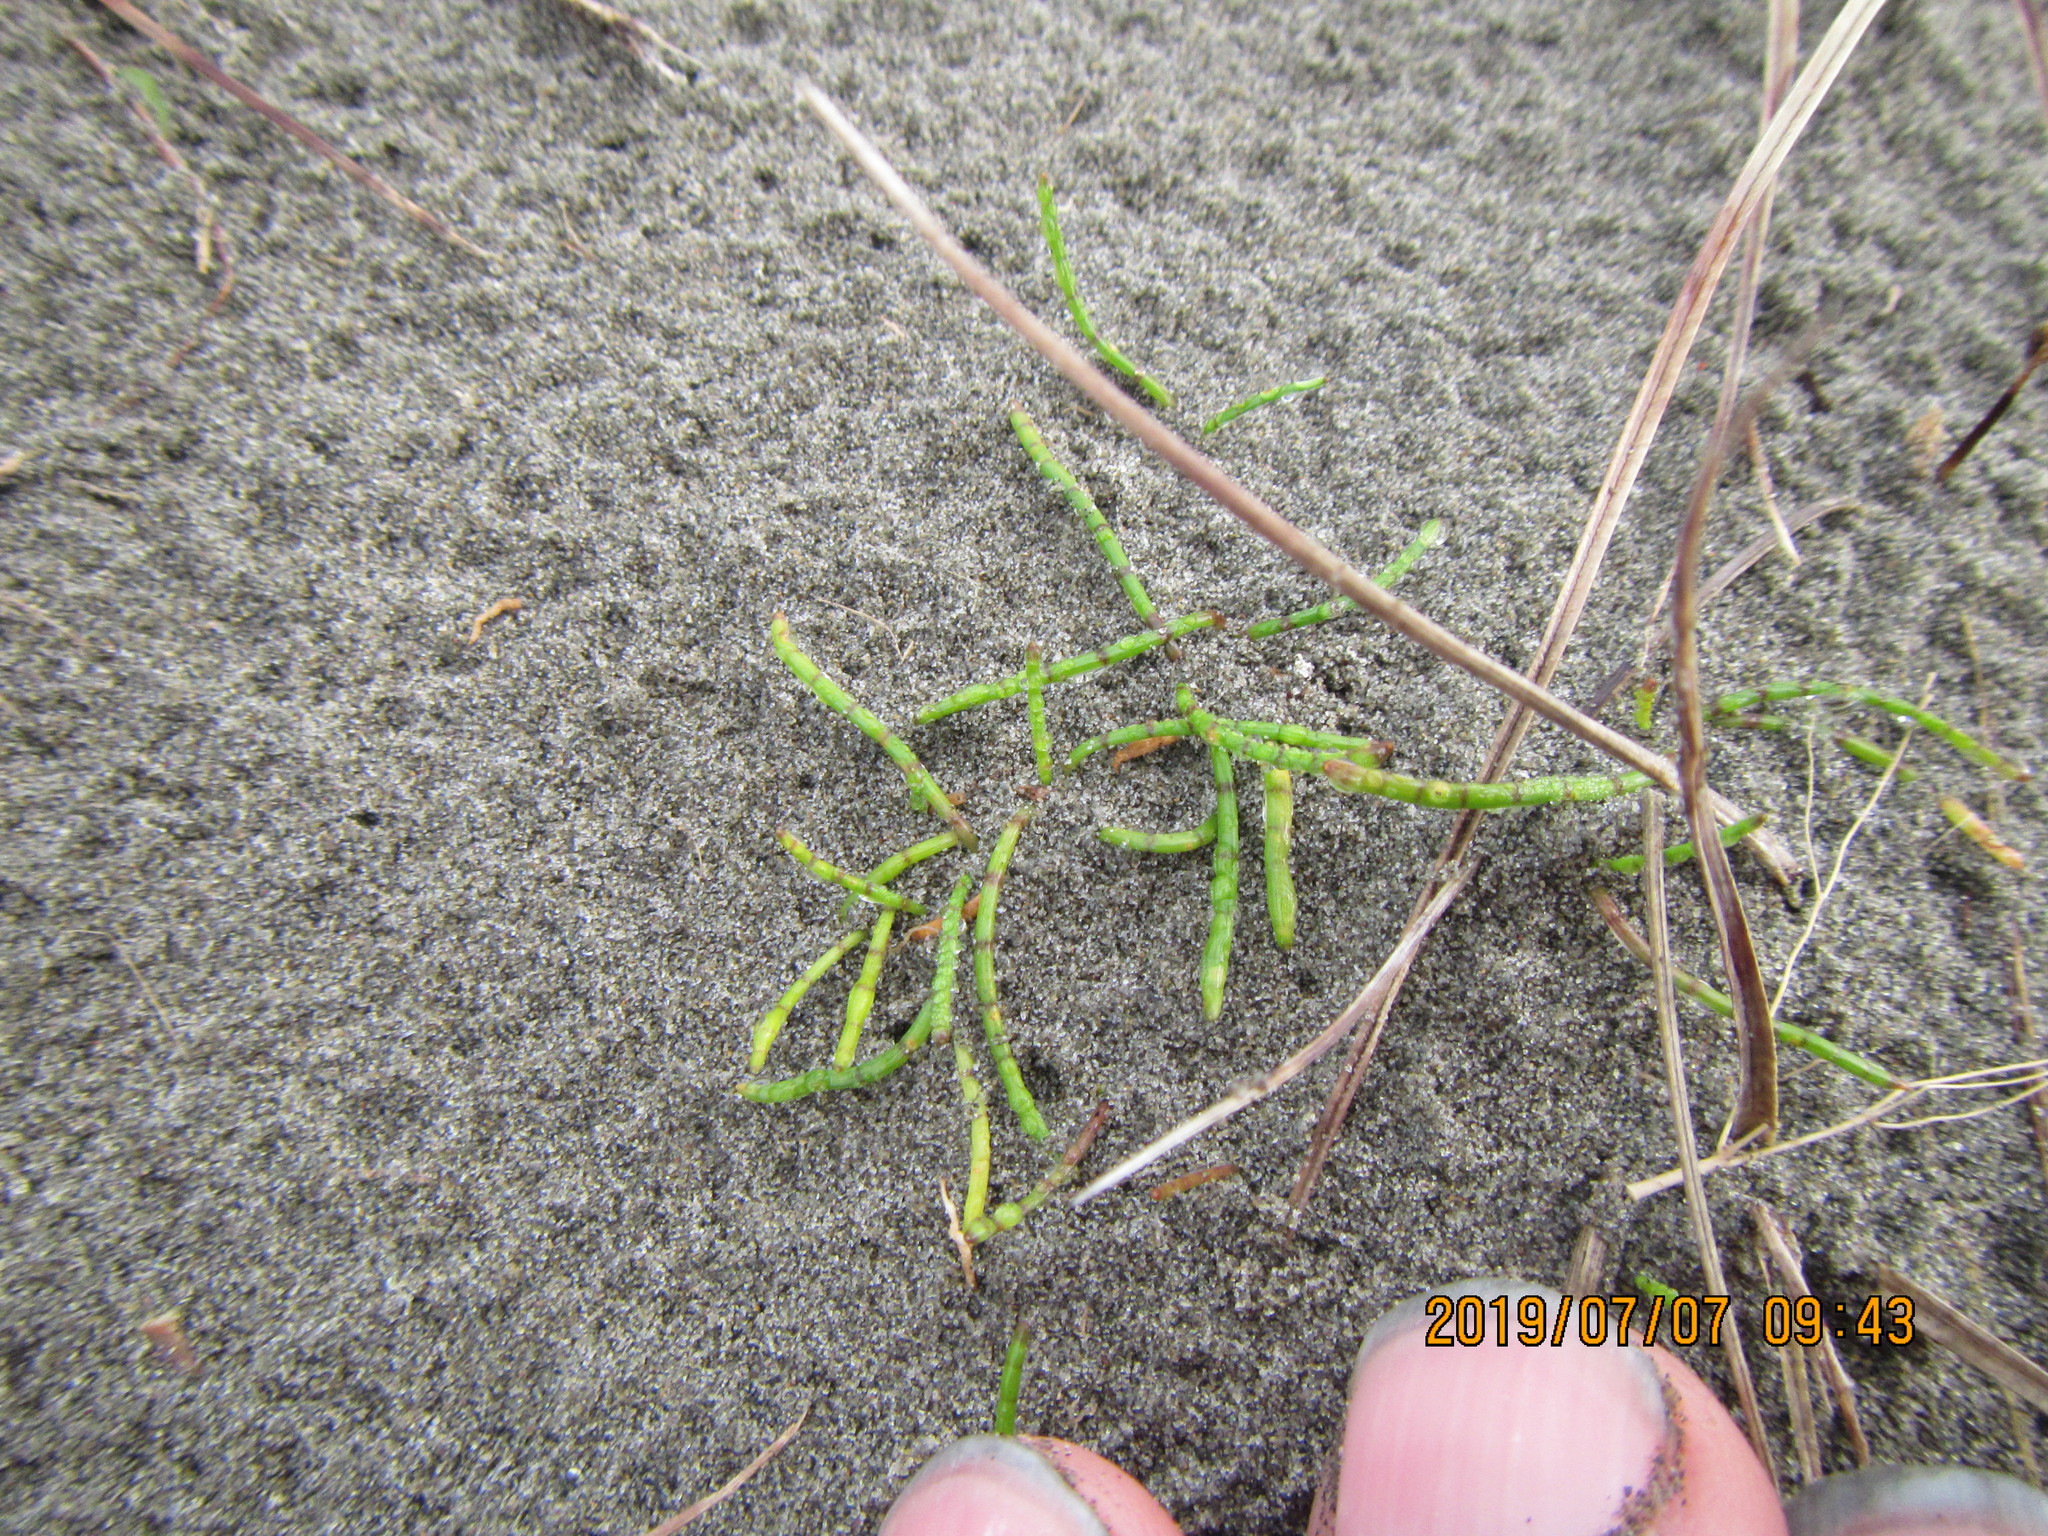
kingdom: Plantae
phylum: Tracheophyta
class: Magnoliopsida
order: Apiales
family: Apiaceae
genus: Lilaeopsis
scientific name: Lilaeopsis novae-zelandiae
